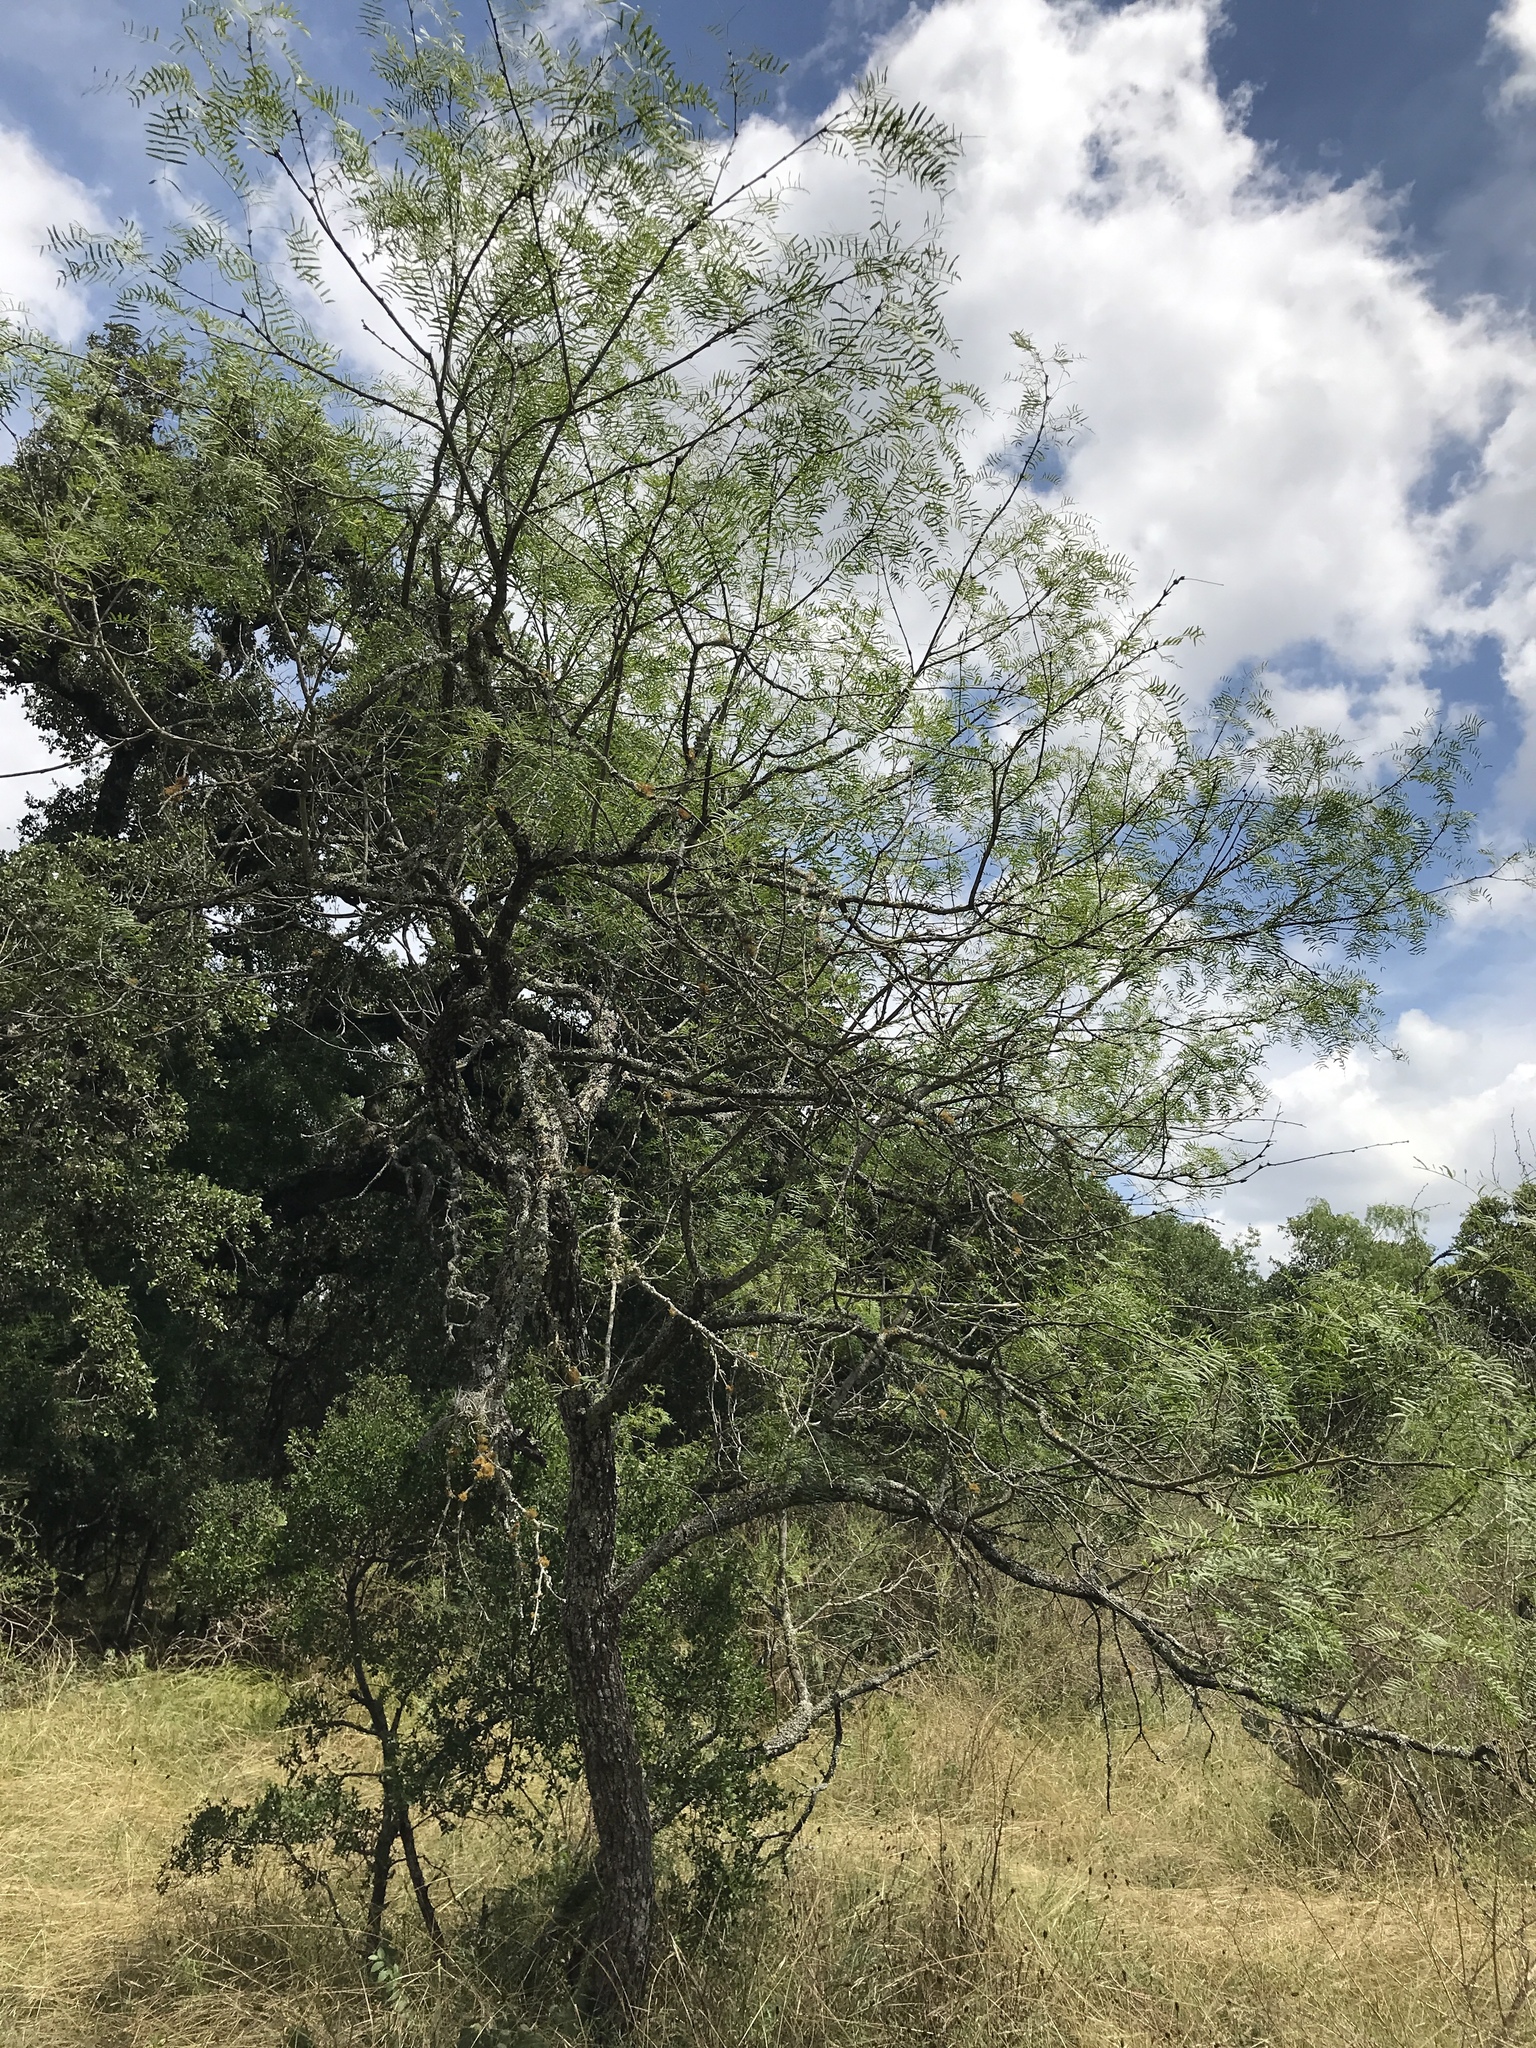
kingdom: Plantae
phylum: Tracheophyta
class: Magnoliopsida
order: Fabales
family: Fabaceae
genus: Prosopis
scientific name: Prosopis glandulosa
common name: Honey mesquite
